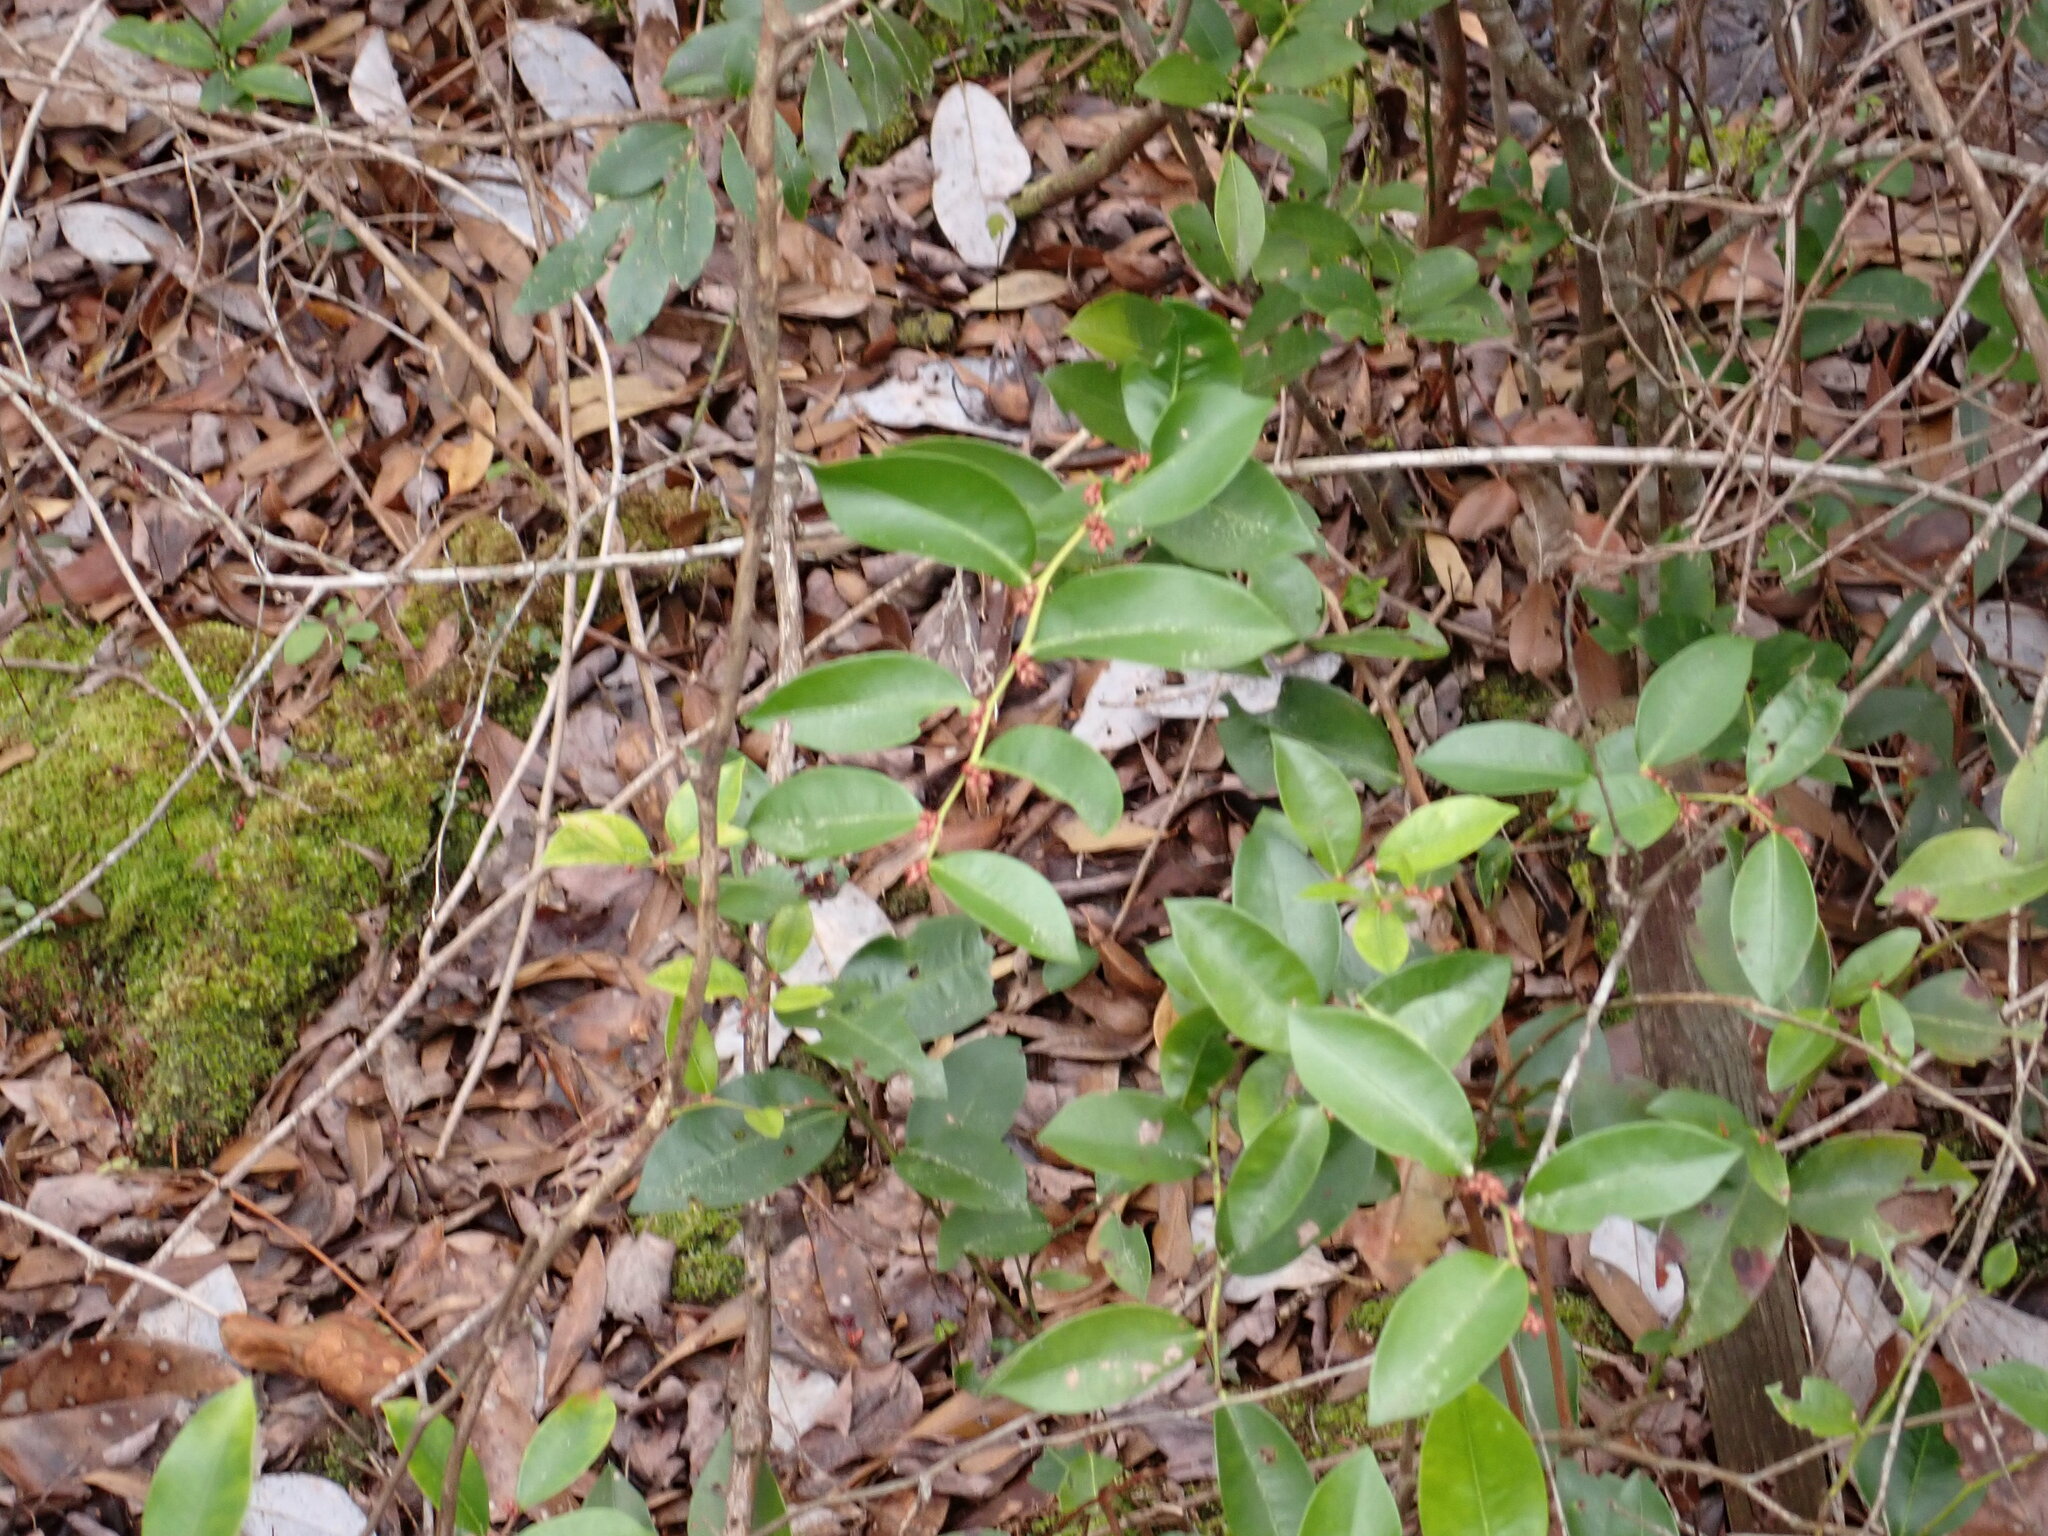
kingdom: Plantae
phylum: Tracheophyta
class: Magnoliopsida
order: Ericales
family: Ericaceae
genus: Lyonia
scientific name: Lyonia lucida
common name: Fetterbush
